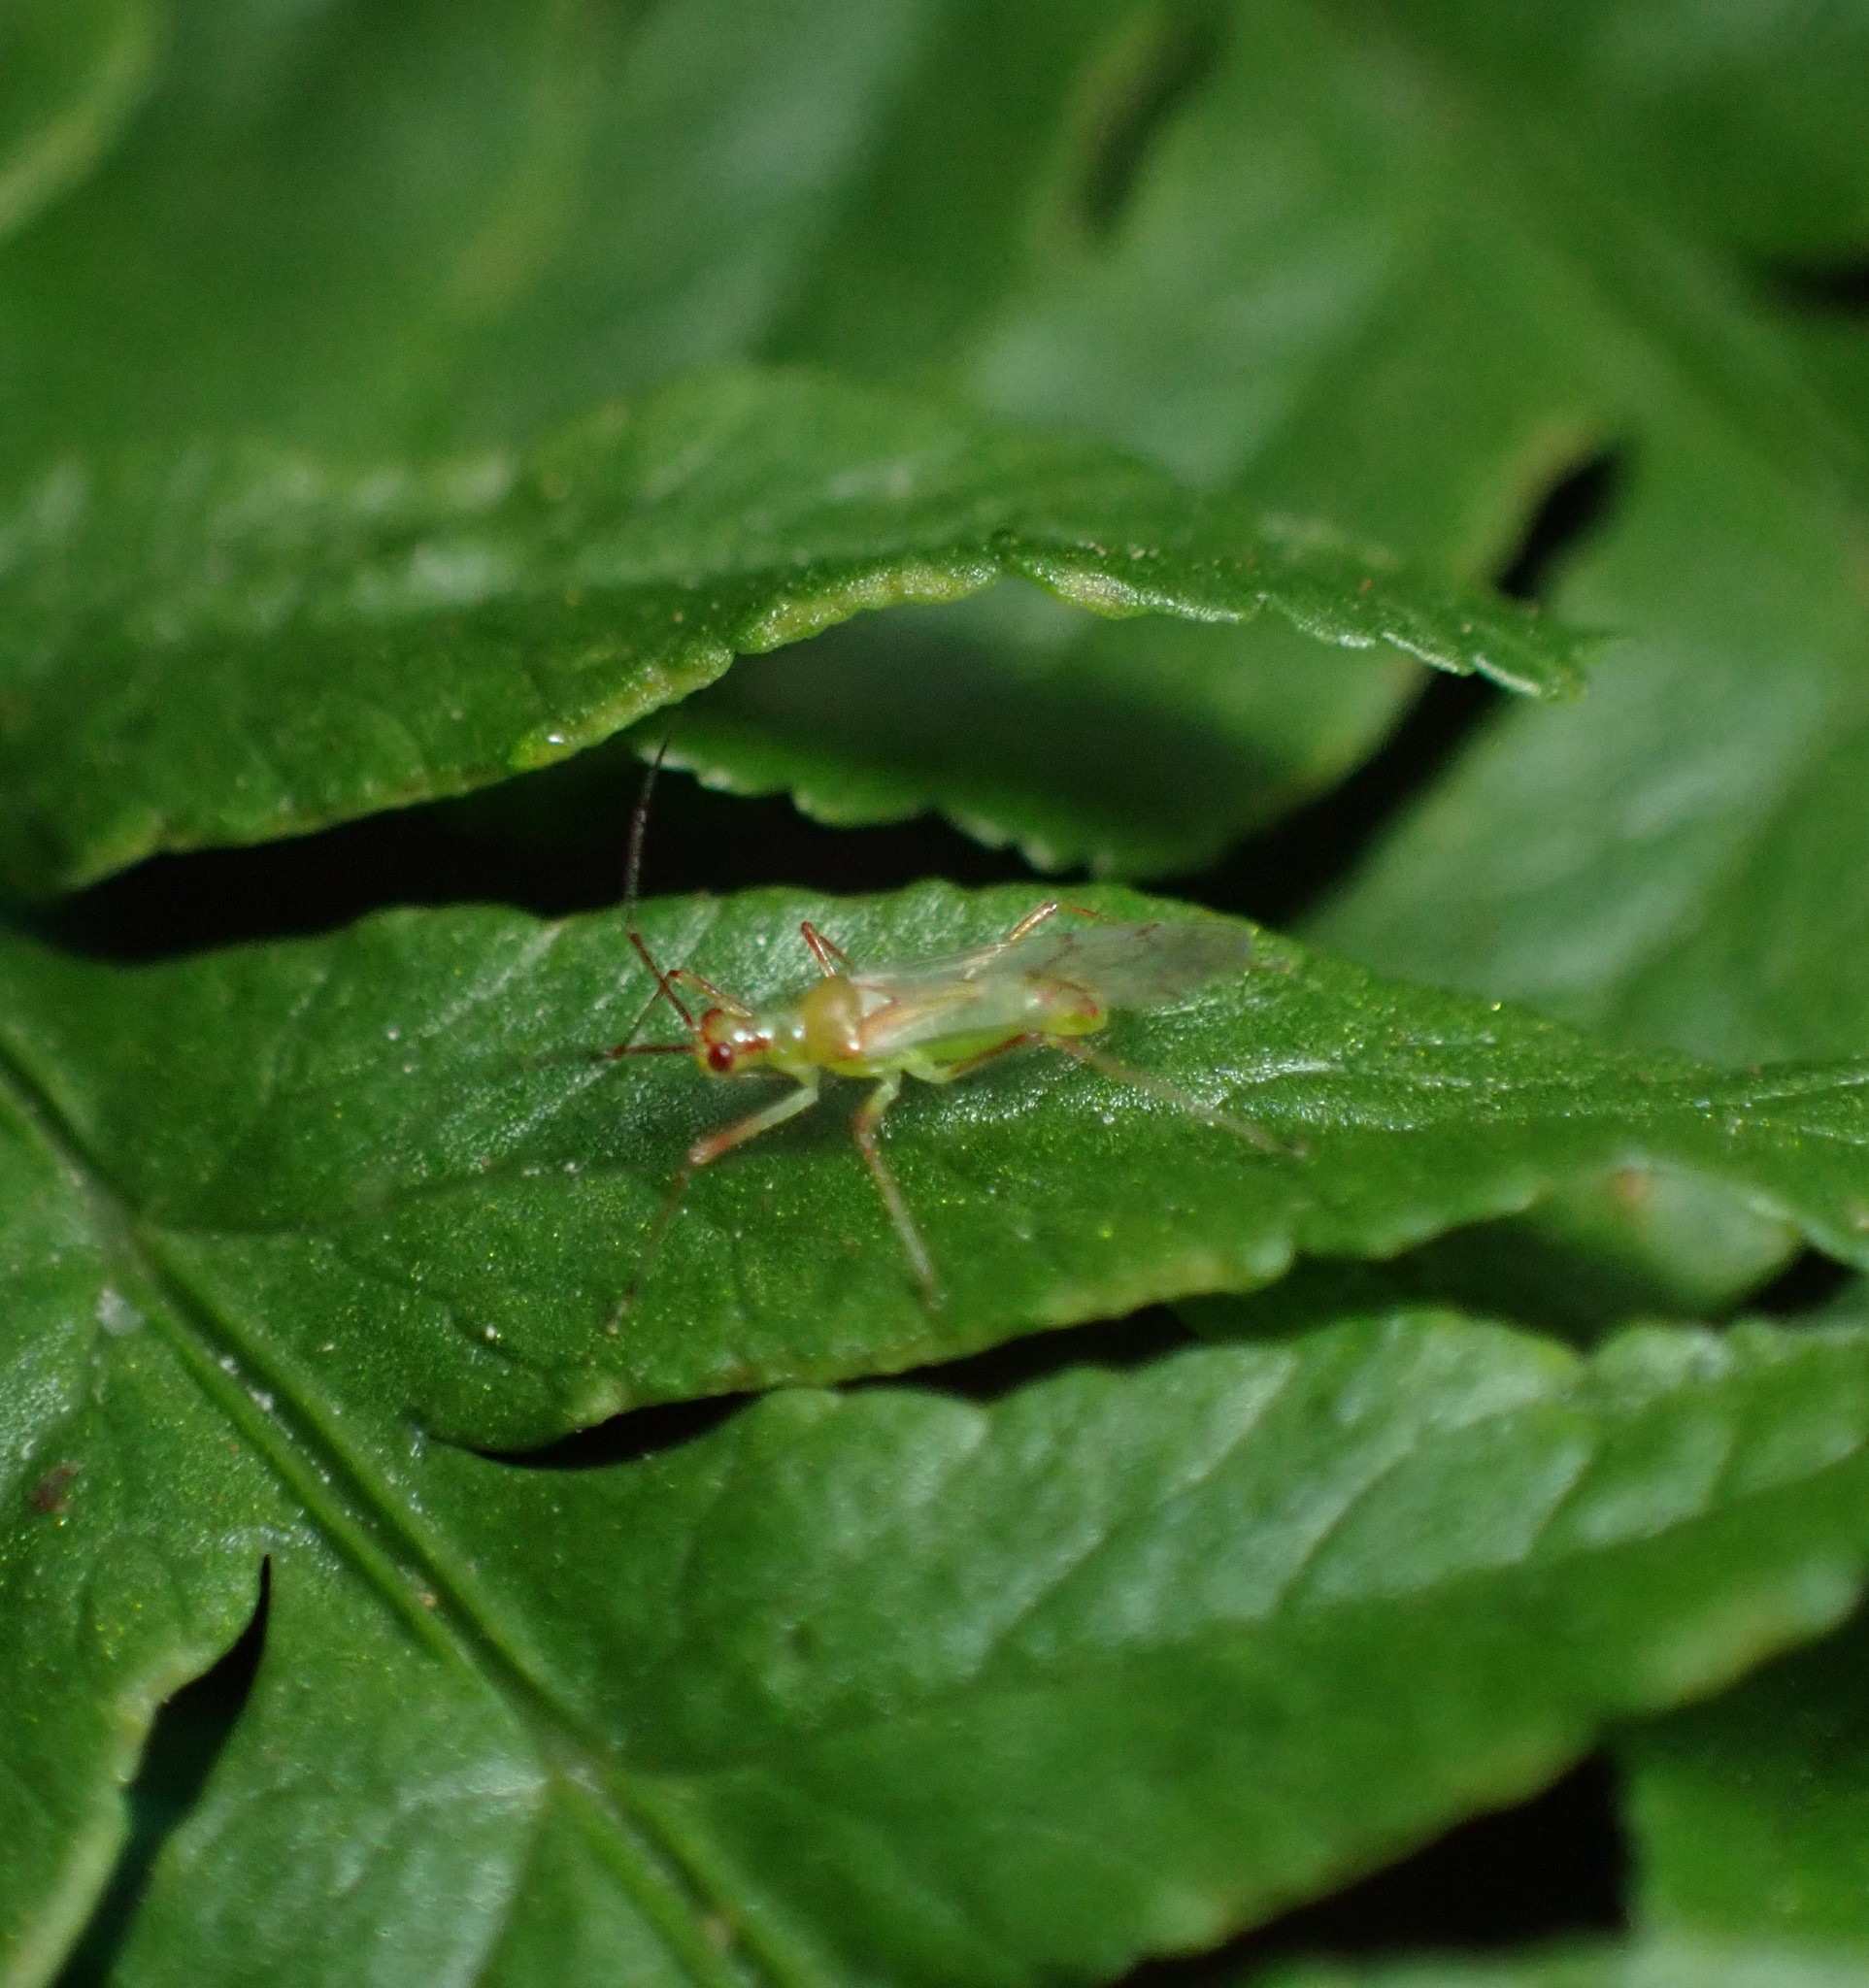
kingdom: Animalia
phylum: Arthropoda
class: Insecta
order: Hemiptera
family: Miridae
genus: Felisacus
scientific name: Felisacus elegantulus
